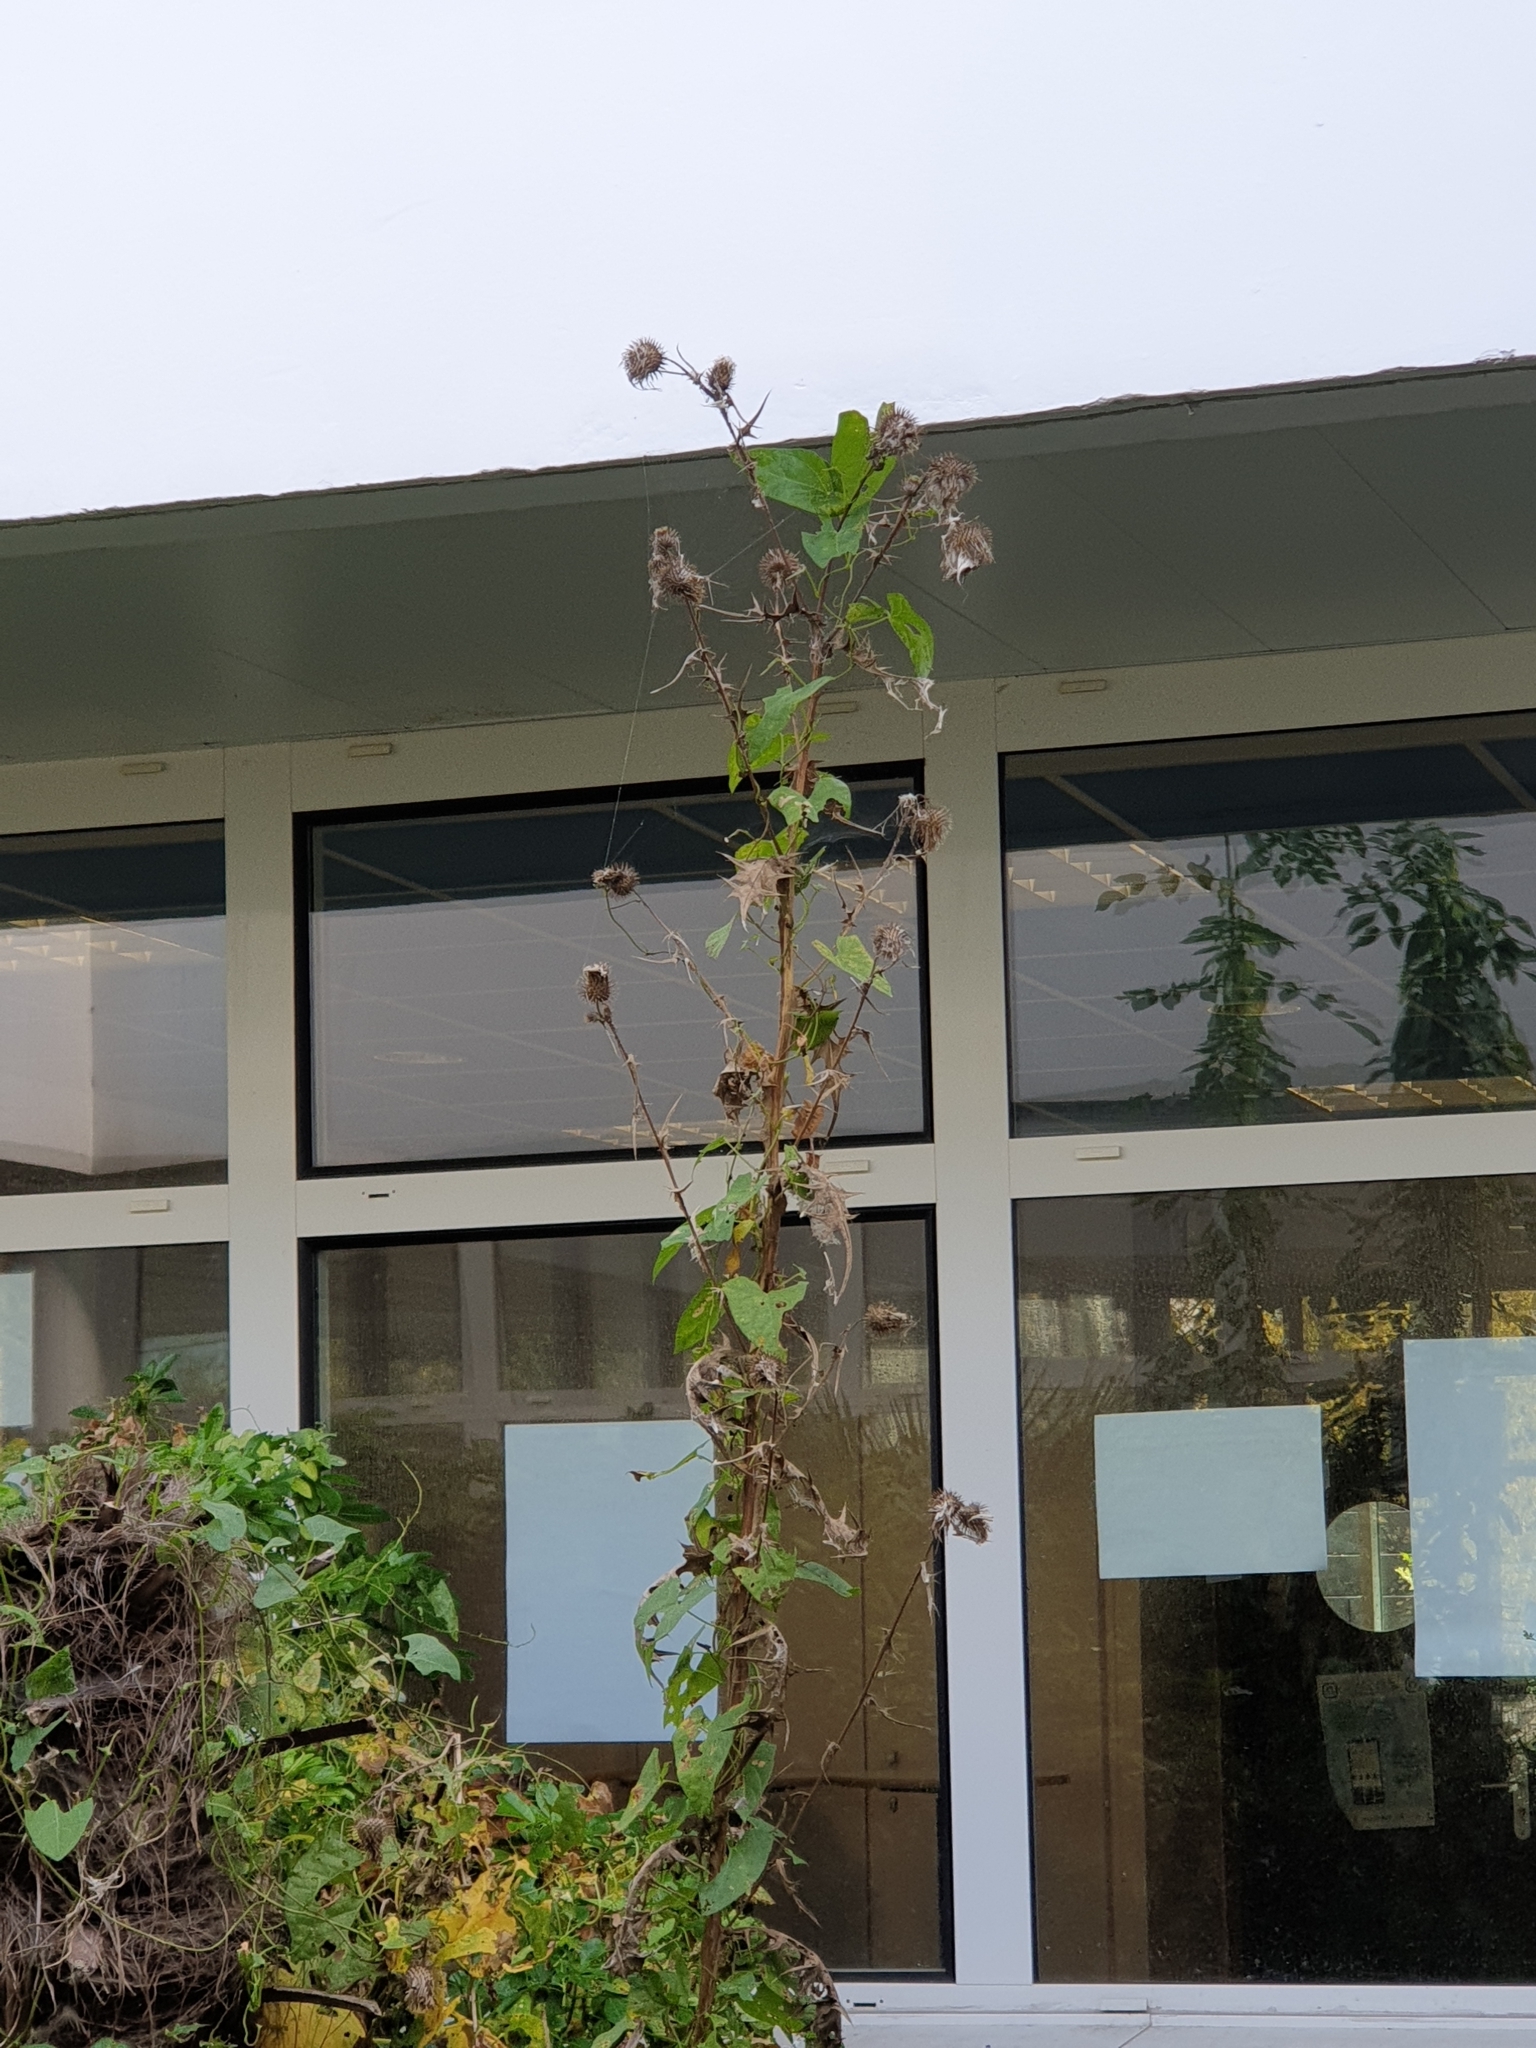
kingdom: Plantae
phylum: Tracheophyta
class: Magnoliopsida
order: Solanales
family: Convolvulaceae
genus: Calystegia
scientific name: Calystegia
